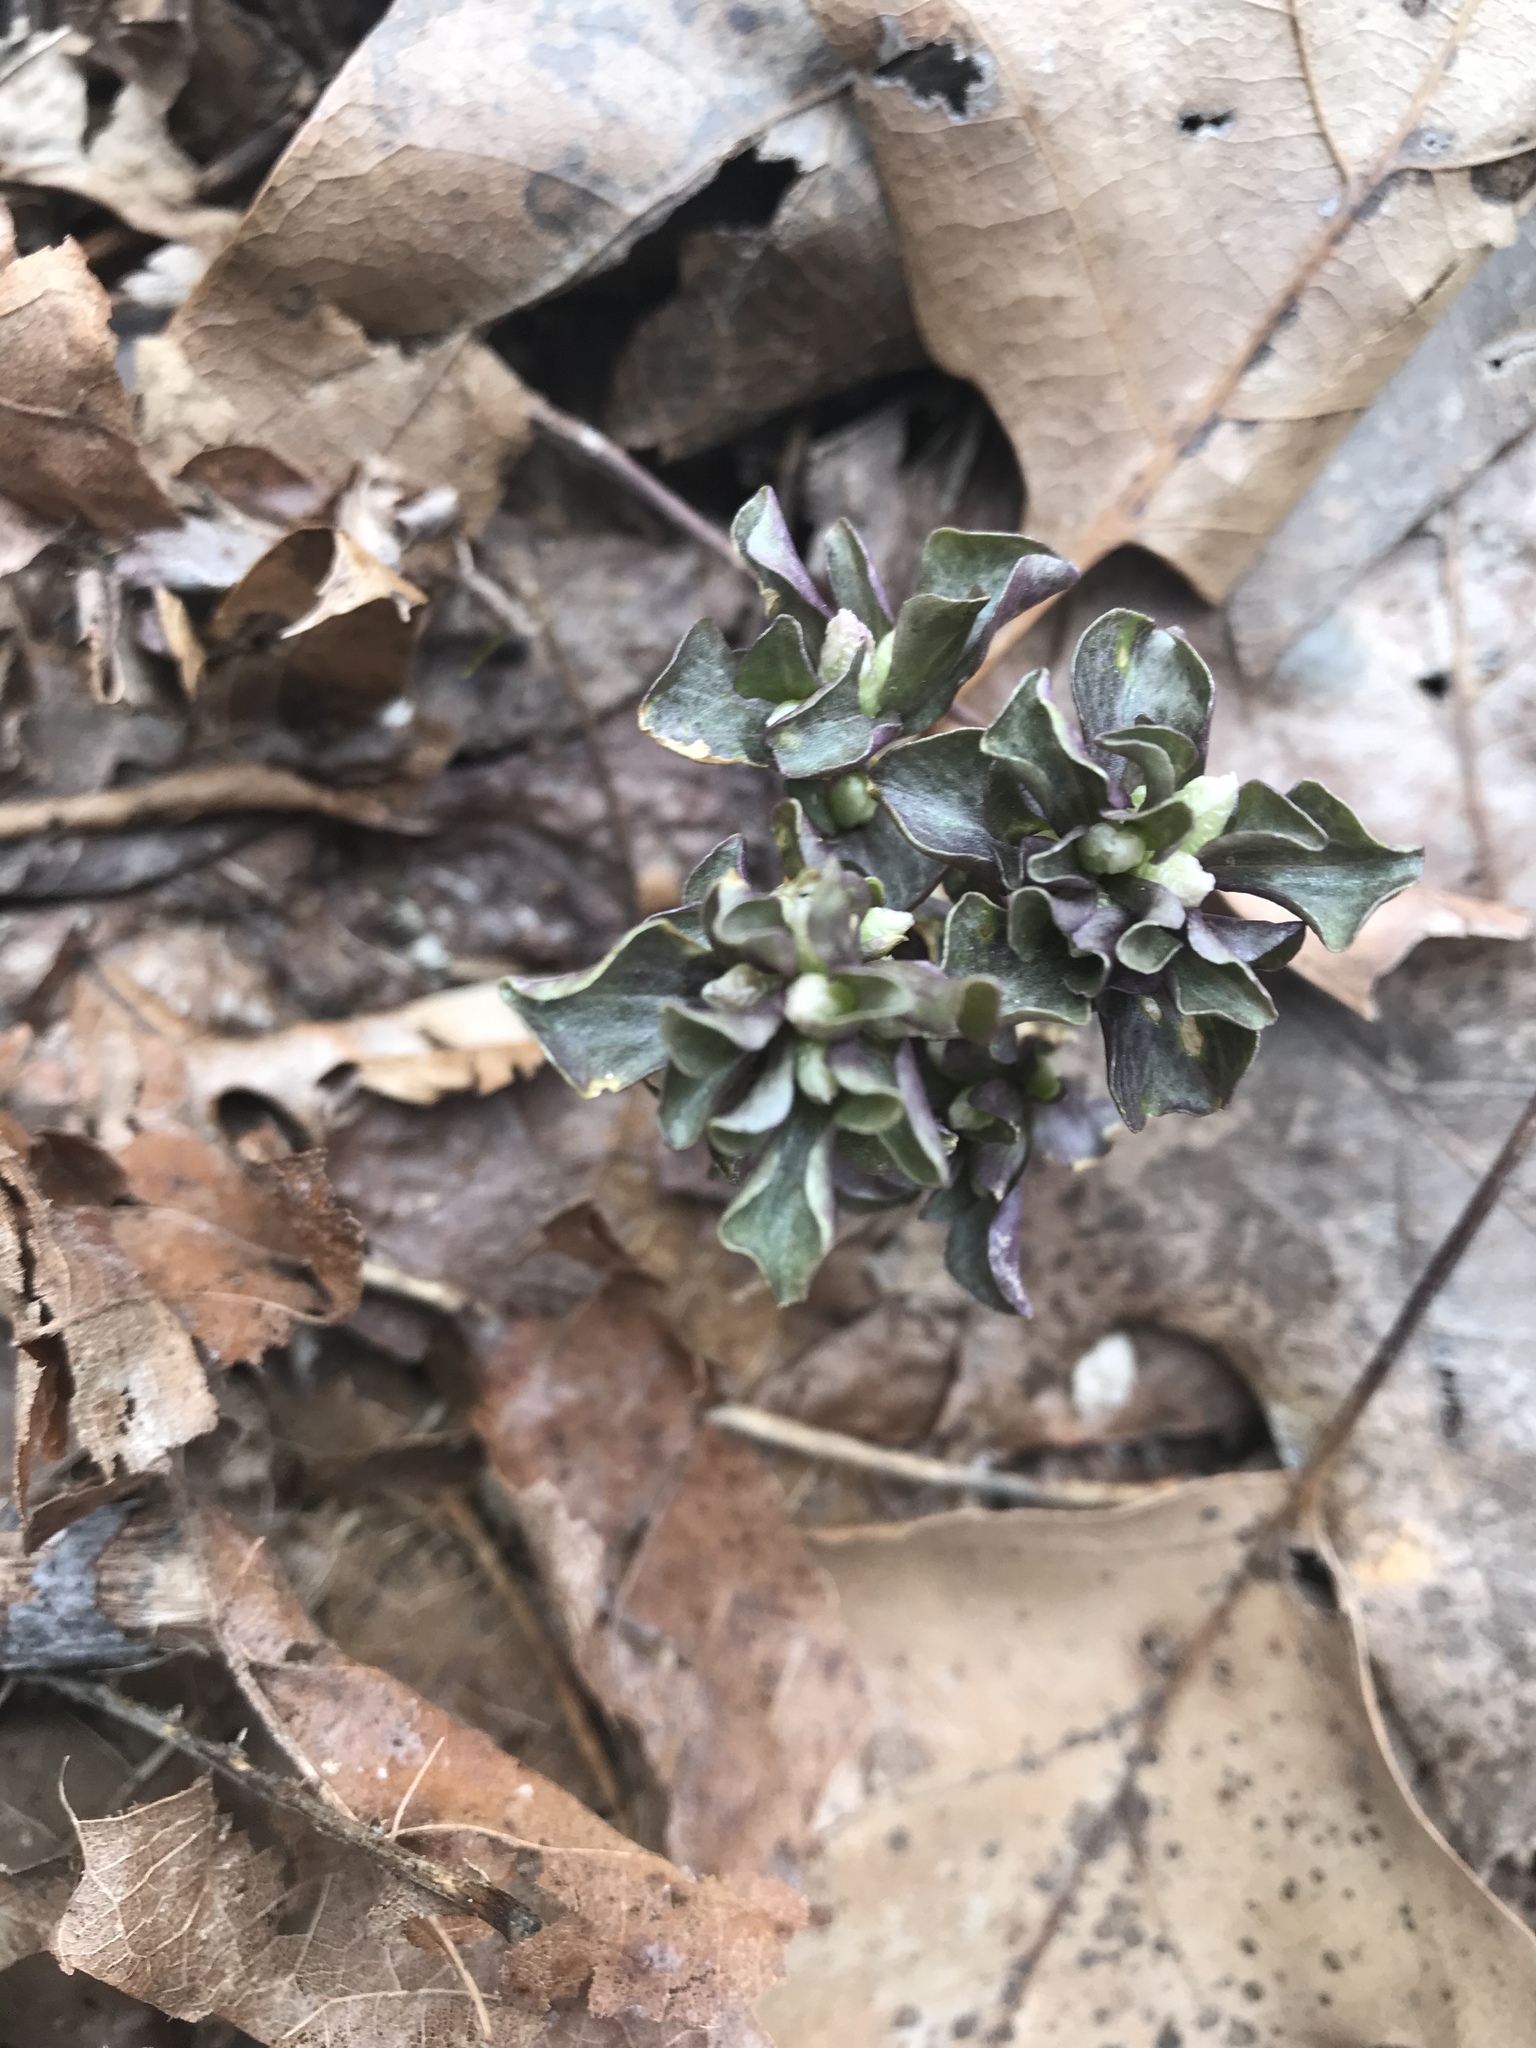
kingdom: Plantae
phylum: Tracheophyta
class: Magnoliopsida
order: Gentianales
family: Gentianaceae
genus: Obolaria
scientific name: Obolaria virginica
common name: Pennywort
